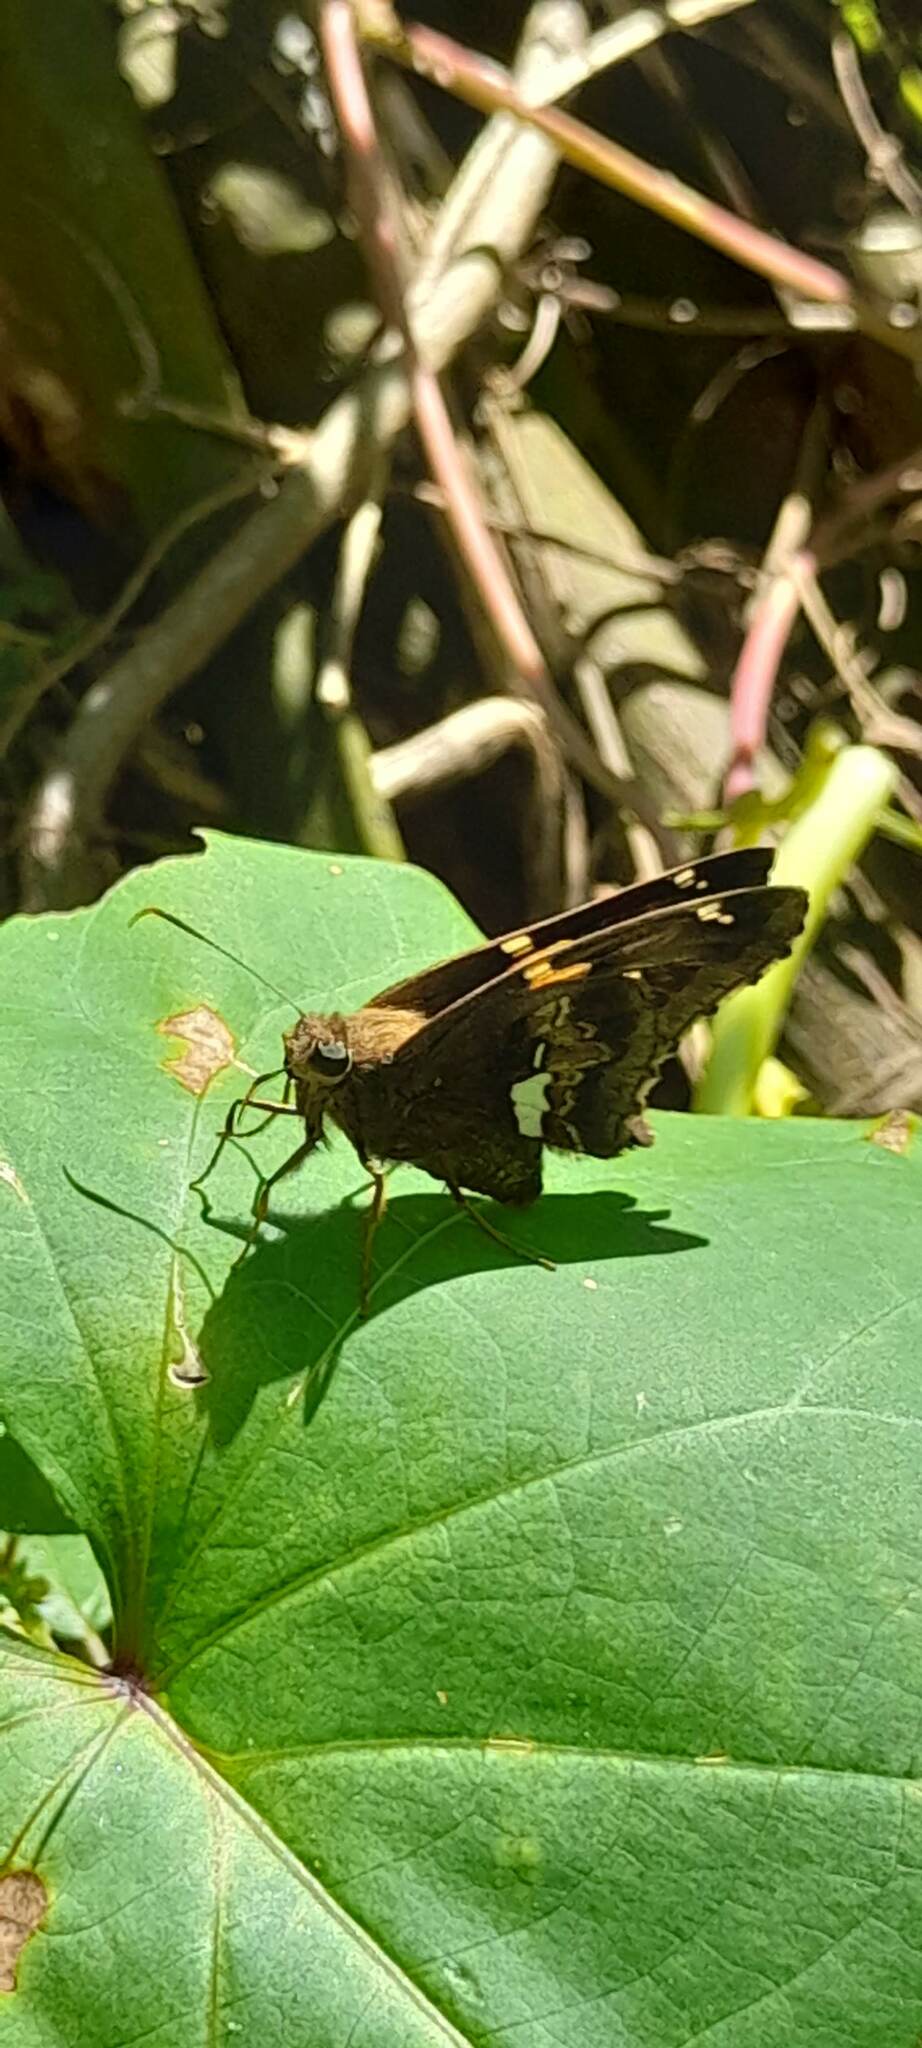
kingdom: Animalia
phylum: Arthropoda
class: Insecta
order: Lepidoptera
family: Hesperiidae
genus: Epargyreus
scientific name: Epargyreus tmolis
